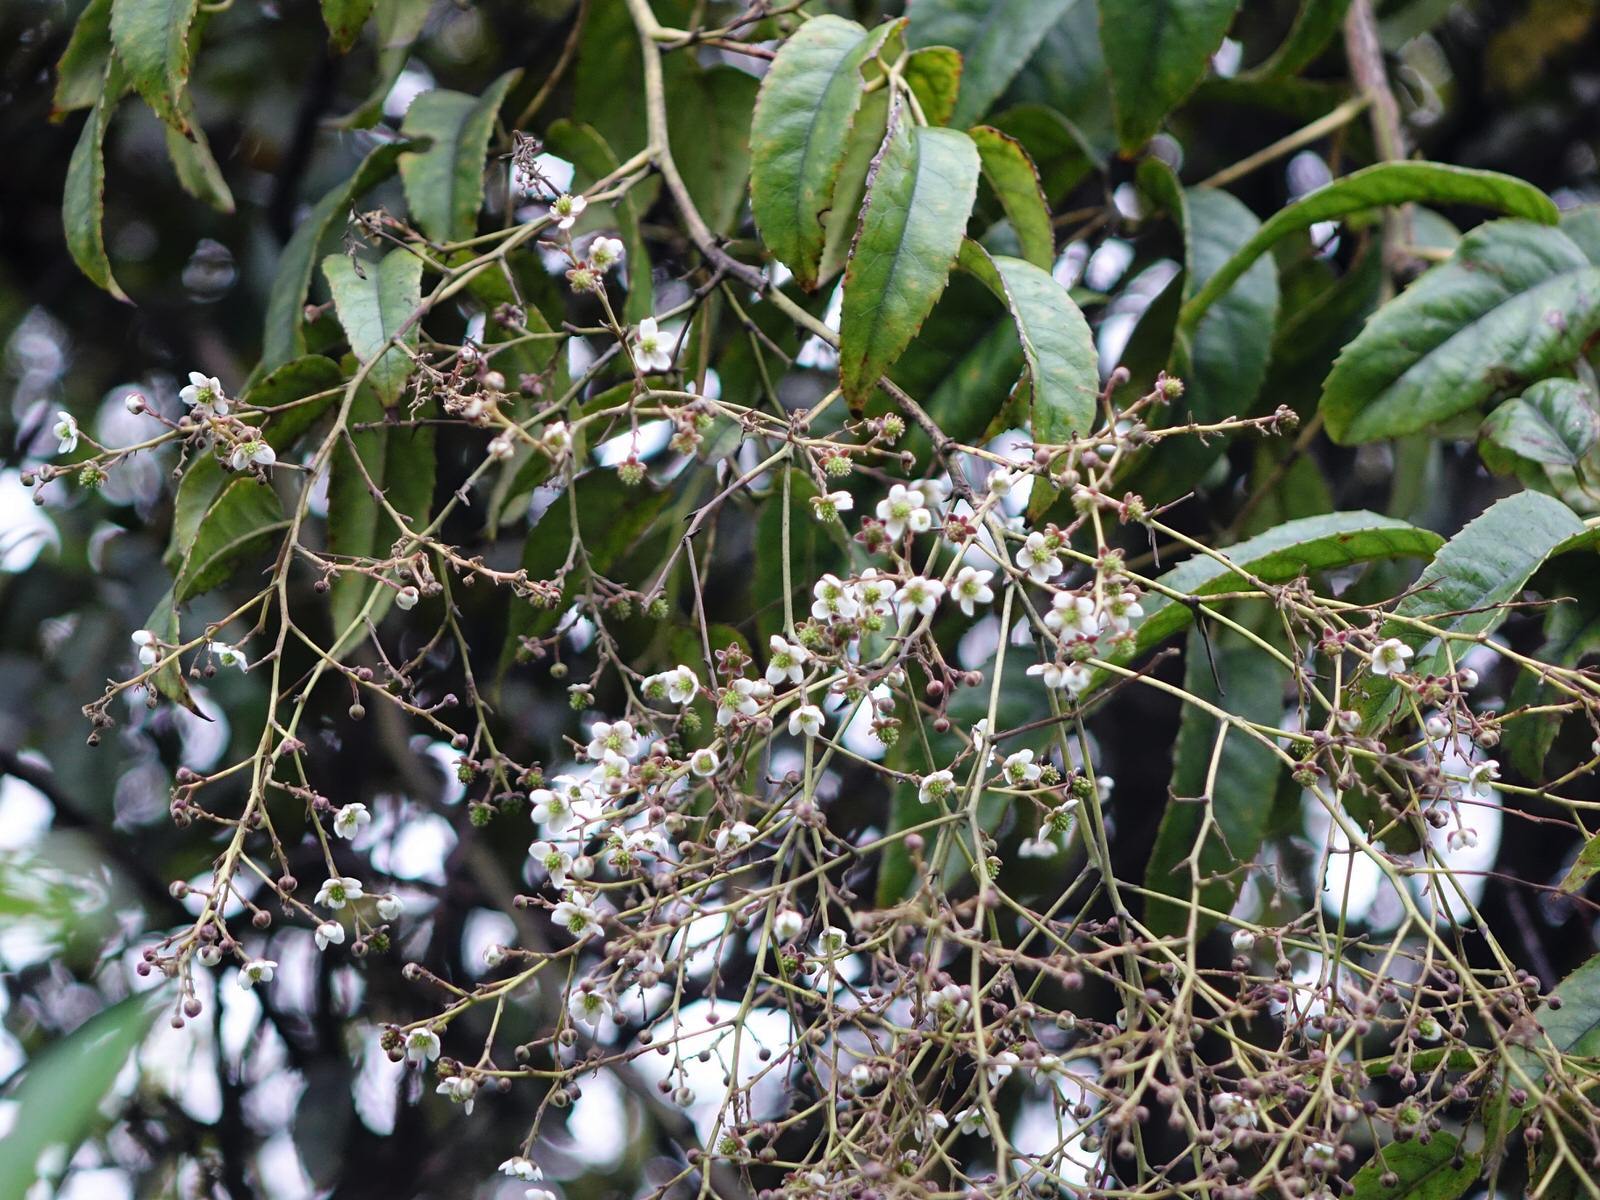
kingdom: Plantae
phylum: Tracheophyta
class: Magnoliopsida
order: Rosales
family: Rosaceae
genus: Rubus
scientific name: Rubus cissoides
